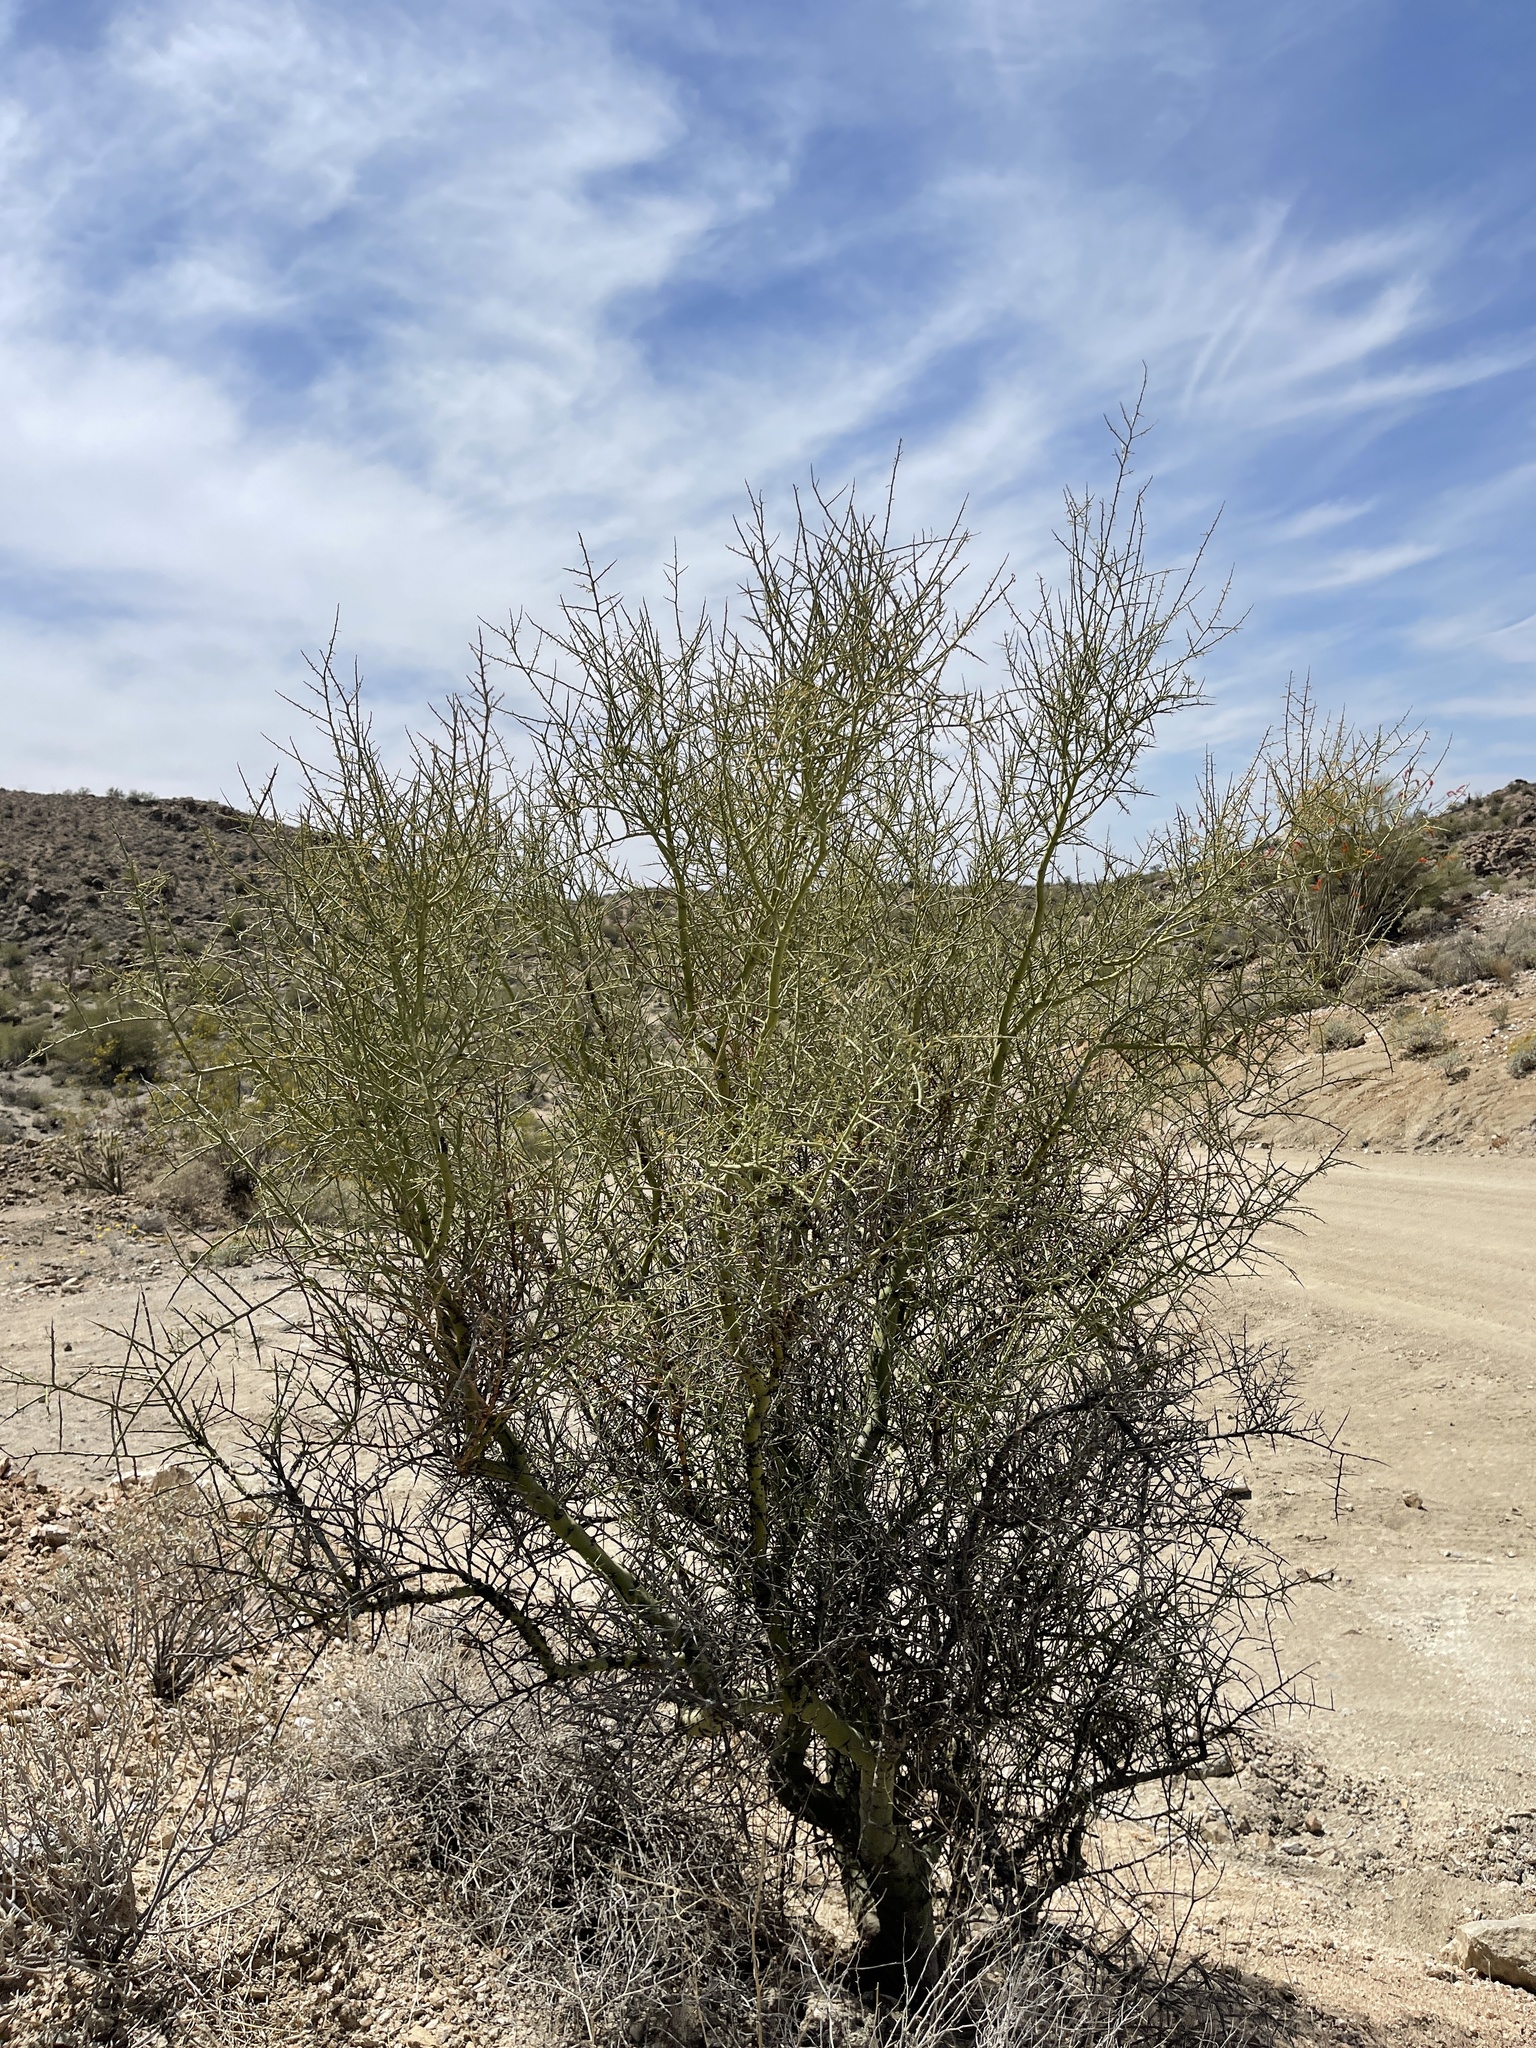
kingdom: Plantae
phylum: Tracheophyta
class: Magnoliopsida
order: Fabales
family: Fabaceae
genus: Parkinsonia
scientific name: Parkinsonia microphylla
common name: Yellow paloverde
